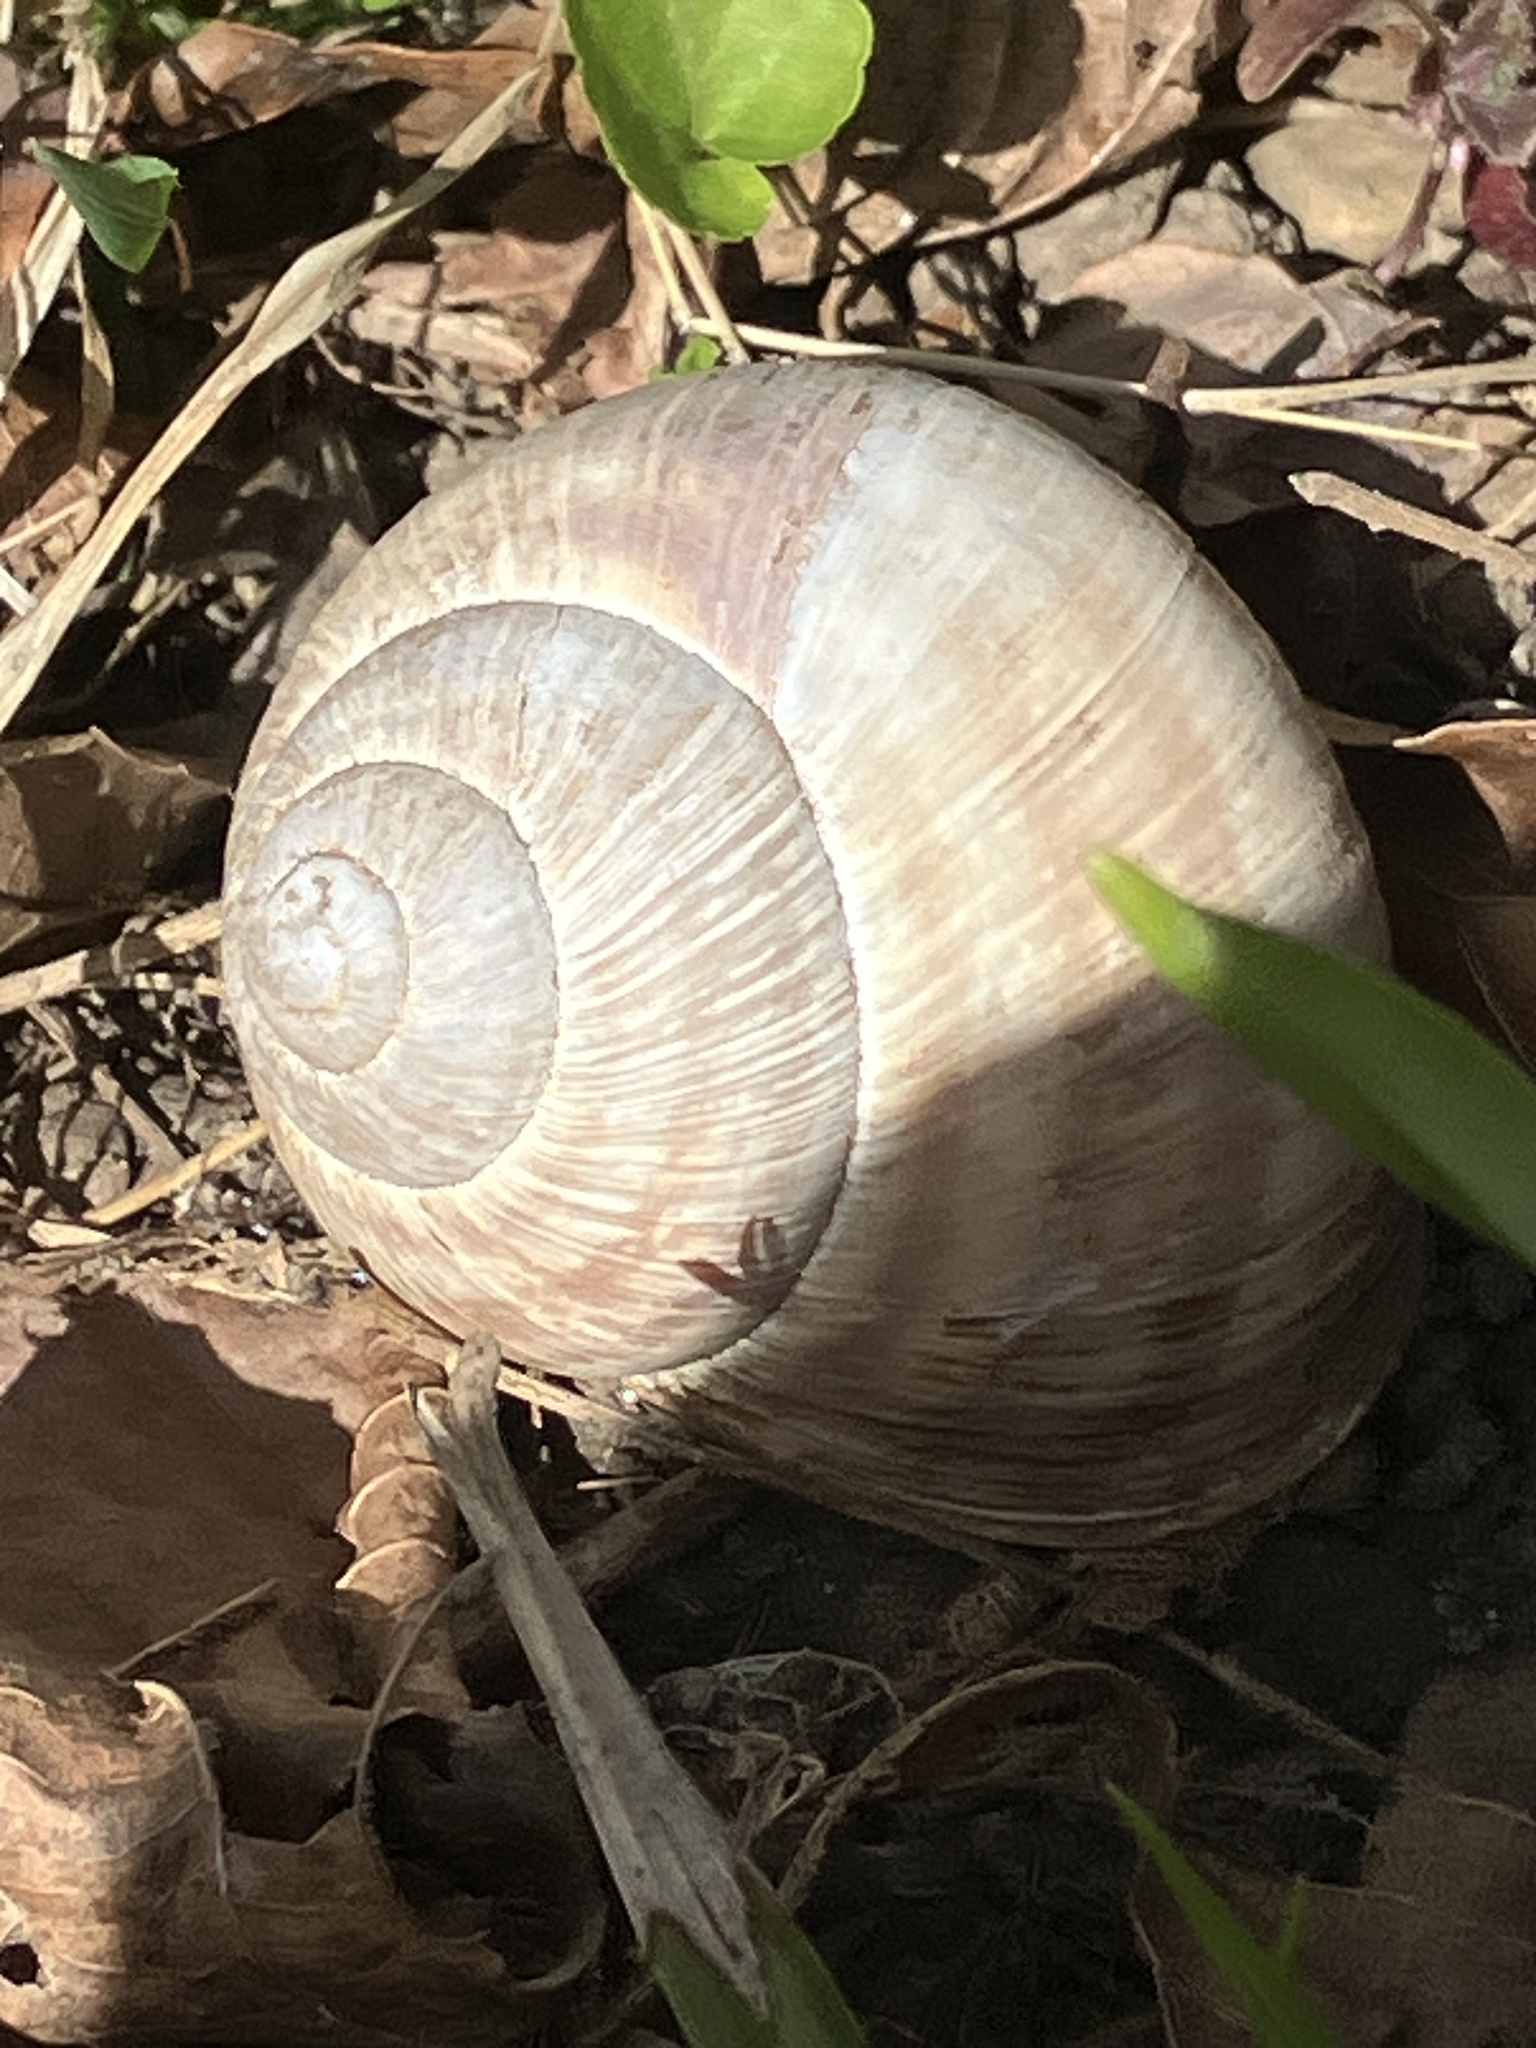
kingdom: Animalia
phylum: Mollusca
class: Gastropoda
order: Stylommatophora
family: Helicidae
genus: Helix
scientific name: Helix pomatia
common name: Roman snail
